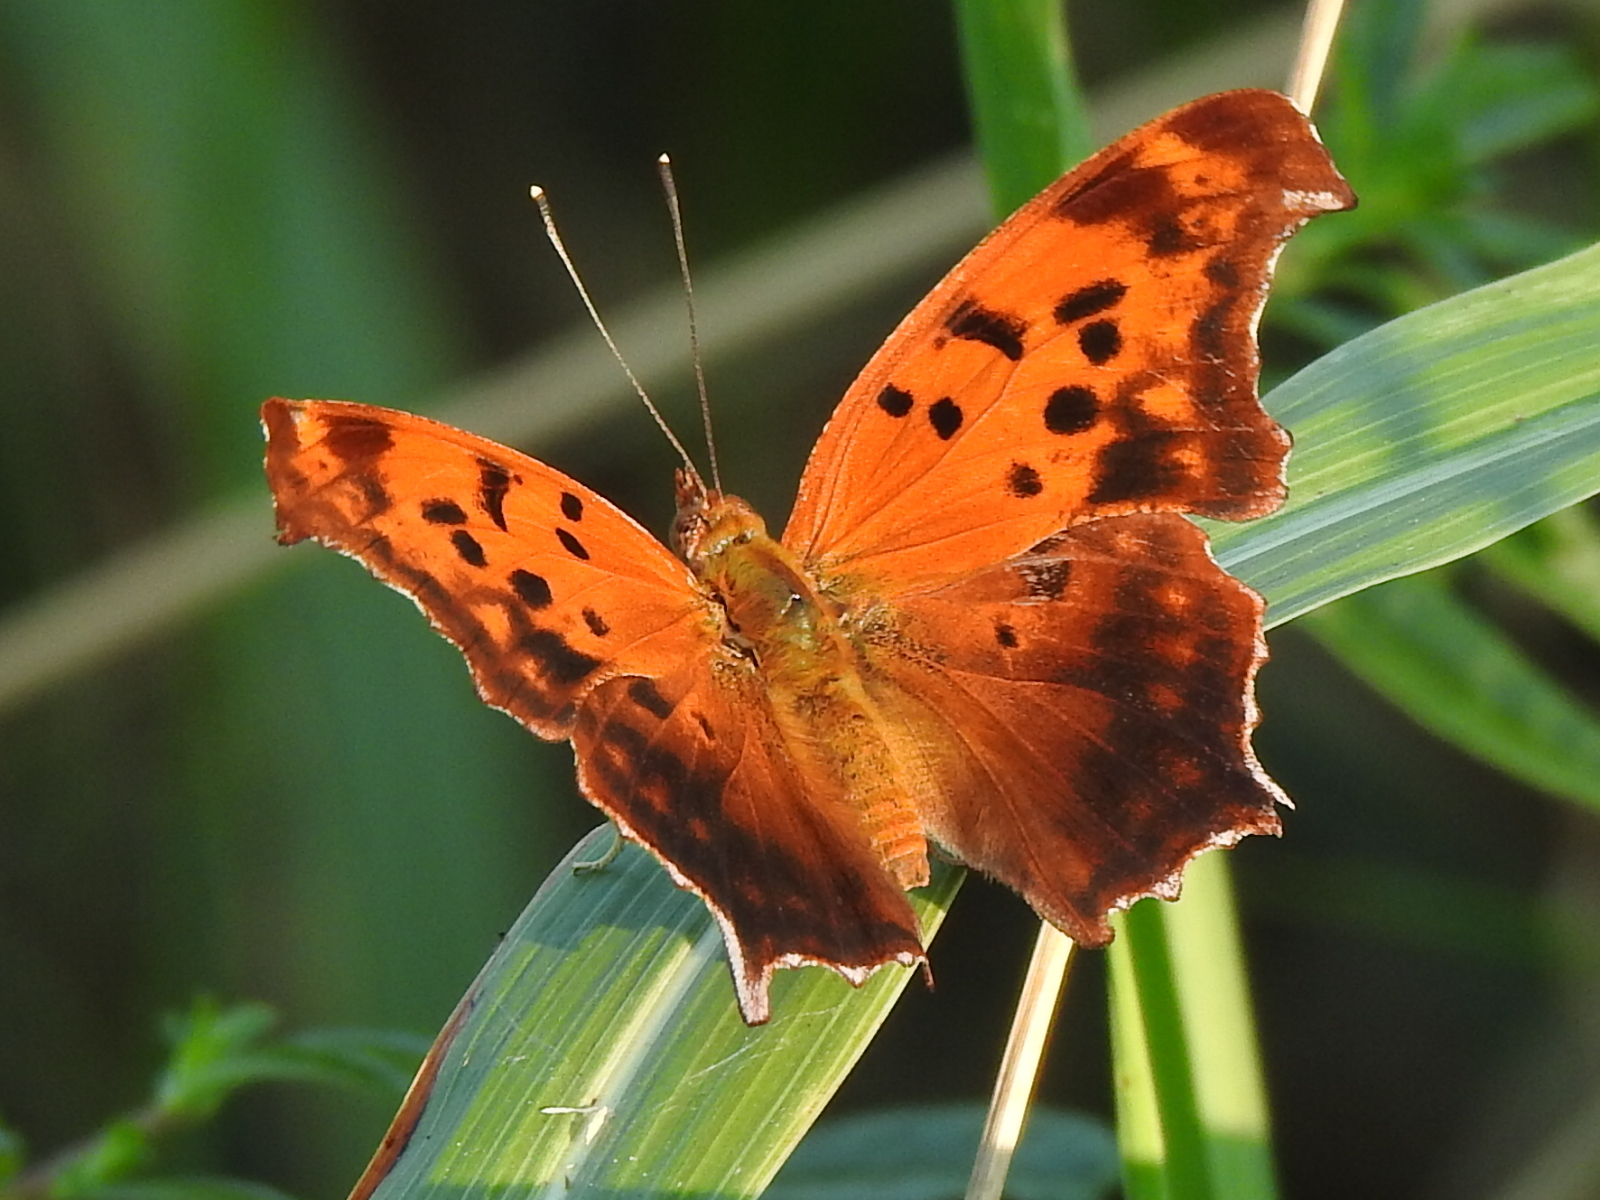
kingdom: Animalia
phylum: Arthropoda
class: Insecta
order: Lepidoptera
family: Nymphalidae
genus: Polygonia
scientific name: Polygonia interrogationis
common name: Question mark
